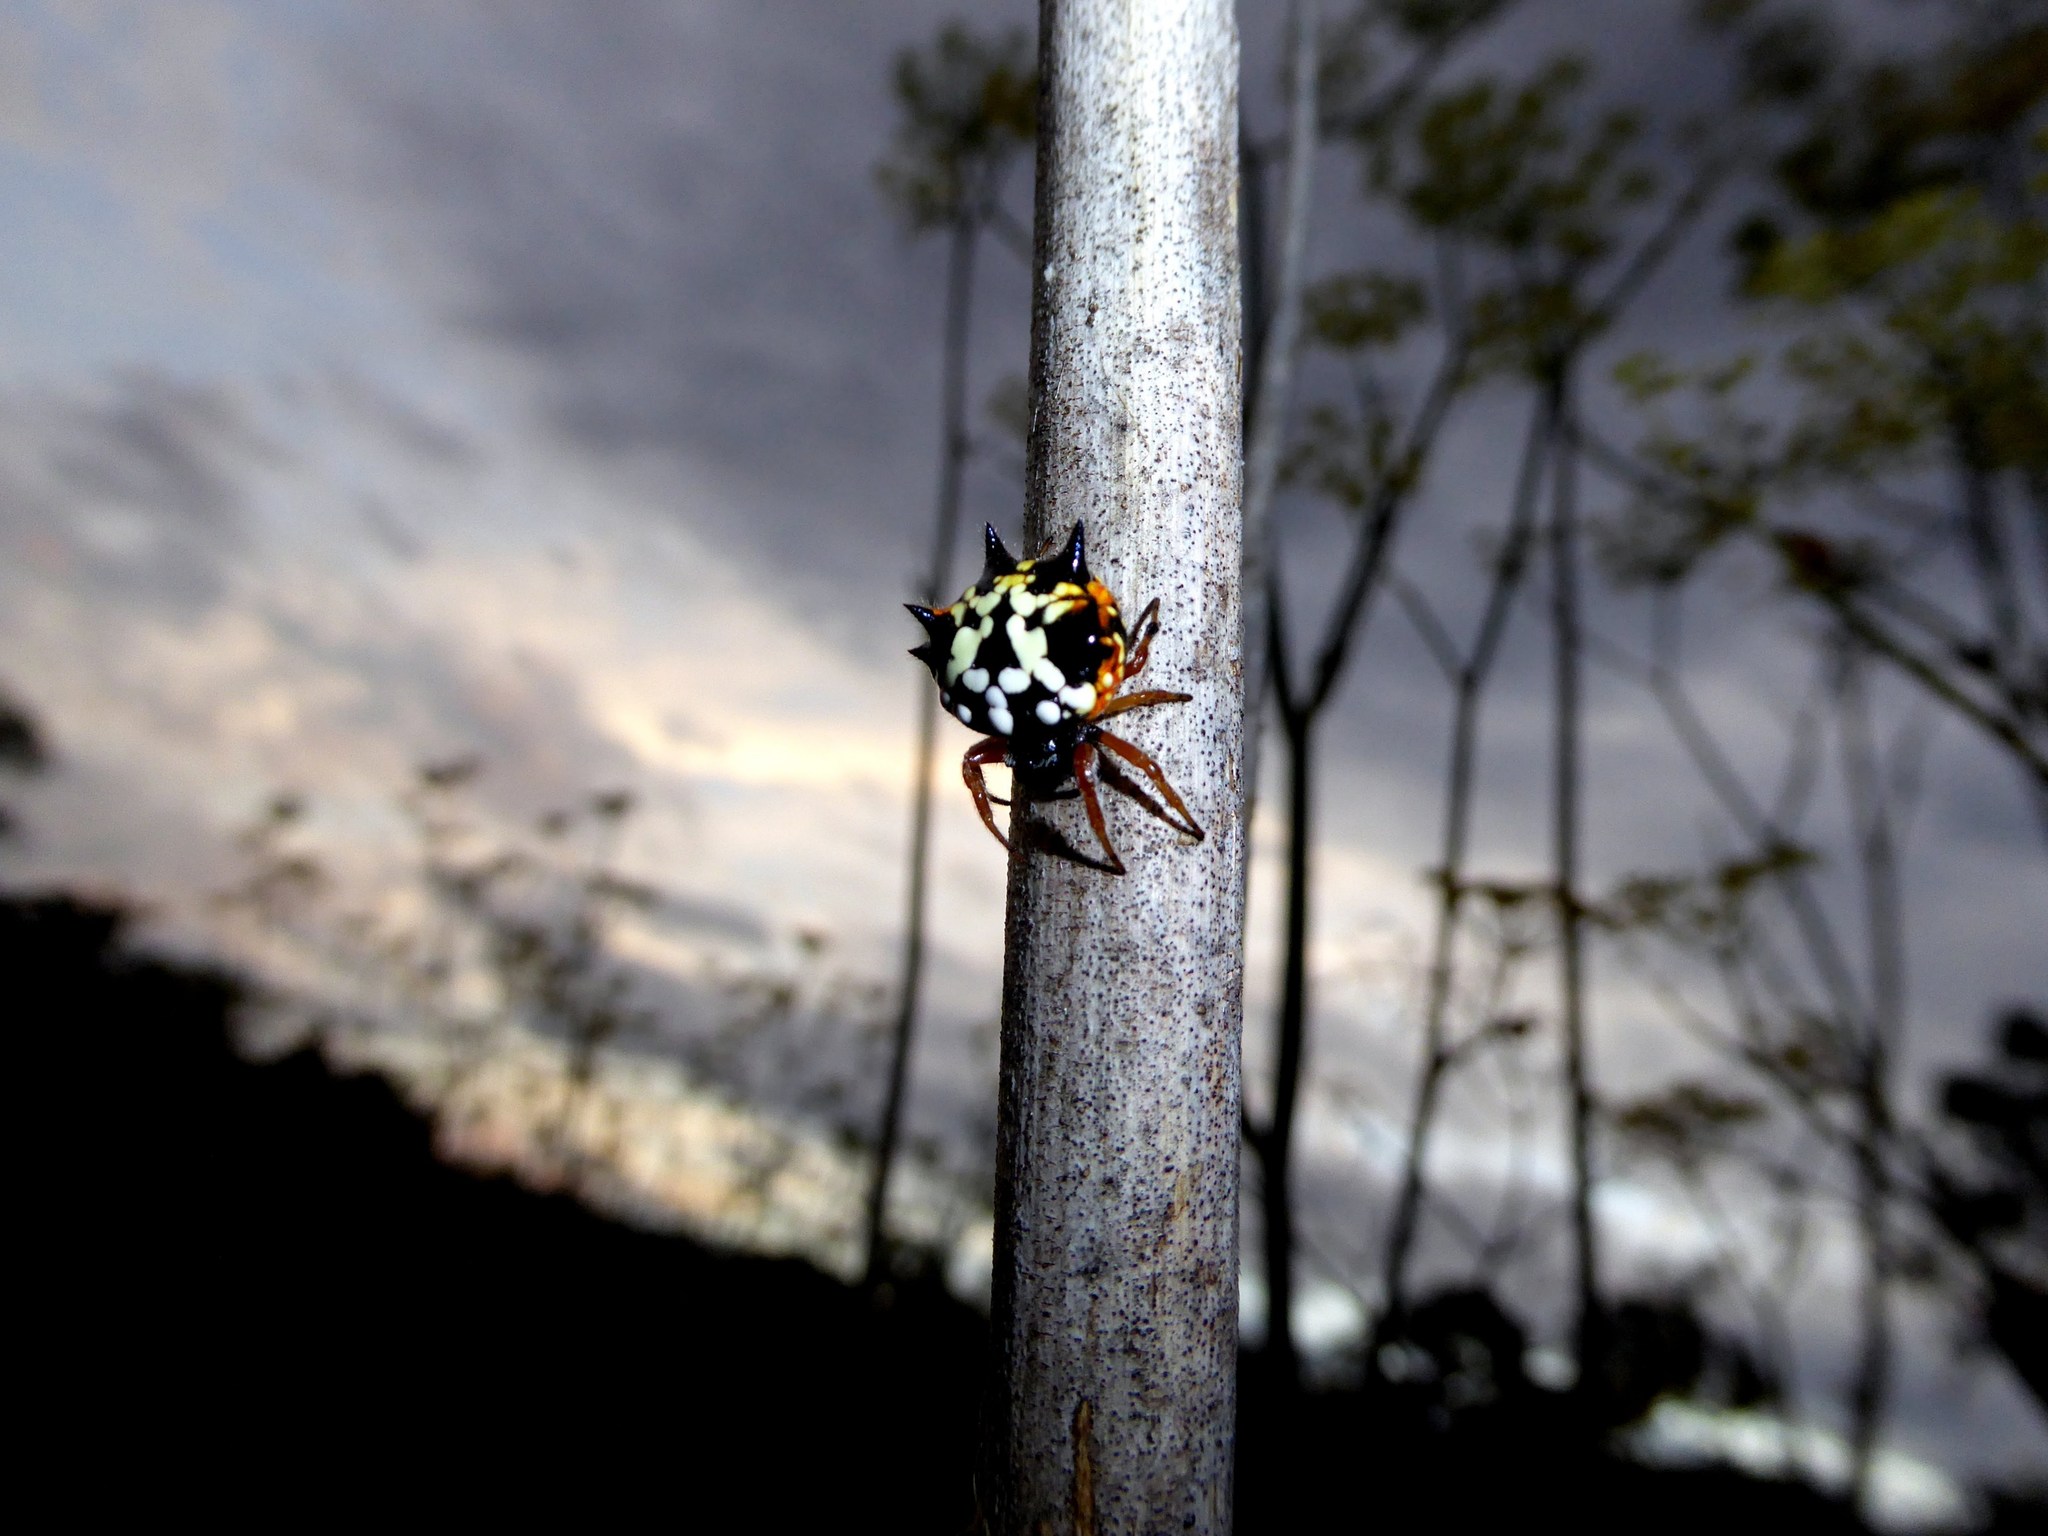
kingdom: Animalia
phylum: Arthropoda
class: Arachnida
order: Araneae
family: Araneidae
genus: Austracantha
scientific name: Austracantha minax
